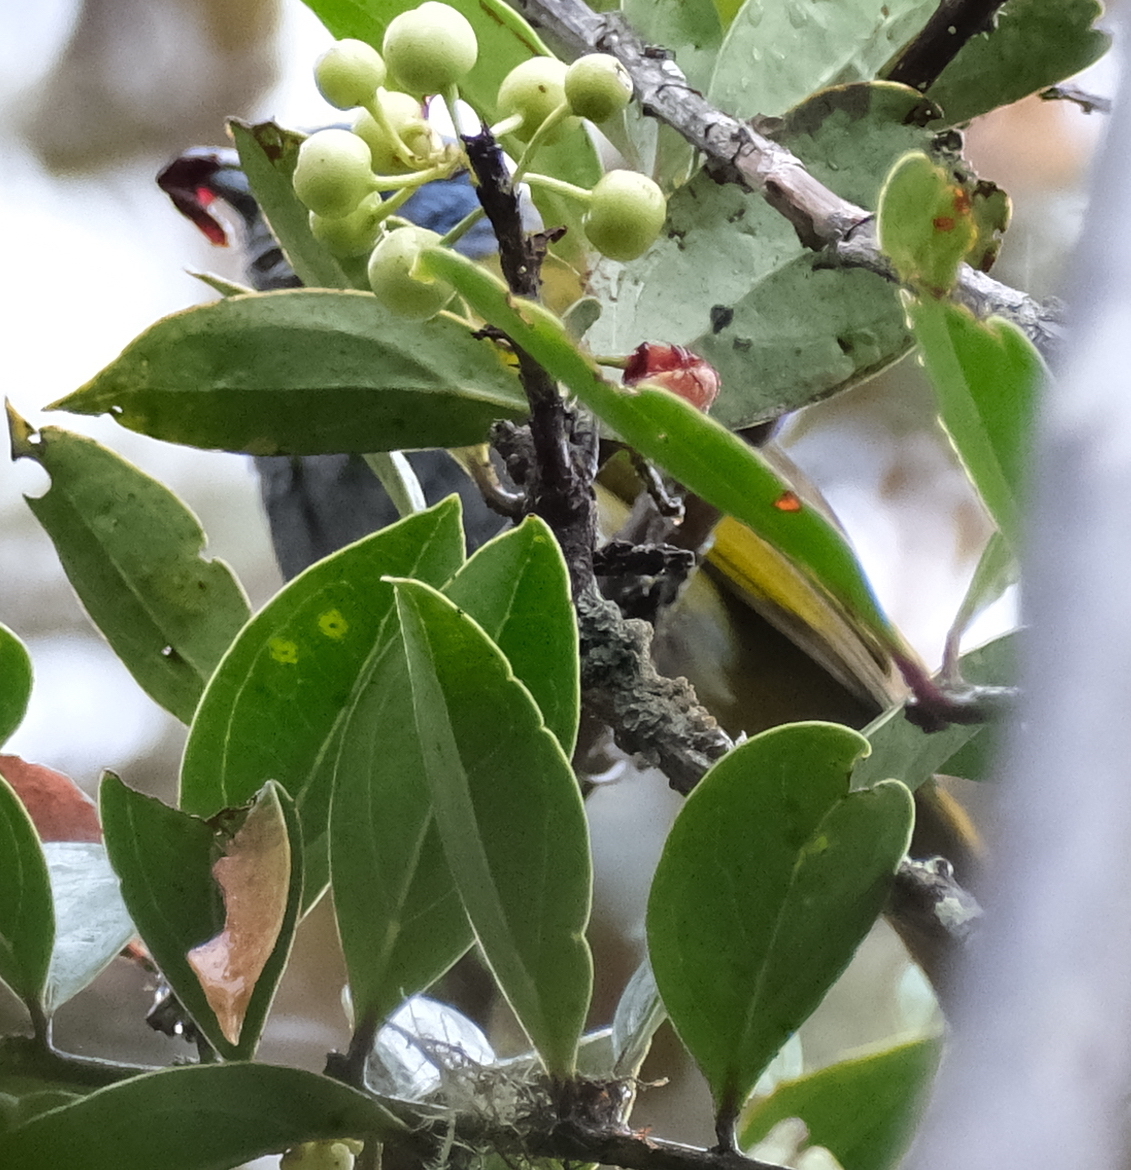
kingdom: Animalia
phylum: Chordata
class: Aves
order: Passeriformes
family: Thraupidae
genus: Sporathraupis
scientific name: Sporathraupis cyanocephala
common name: Blue-capped tanager
